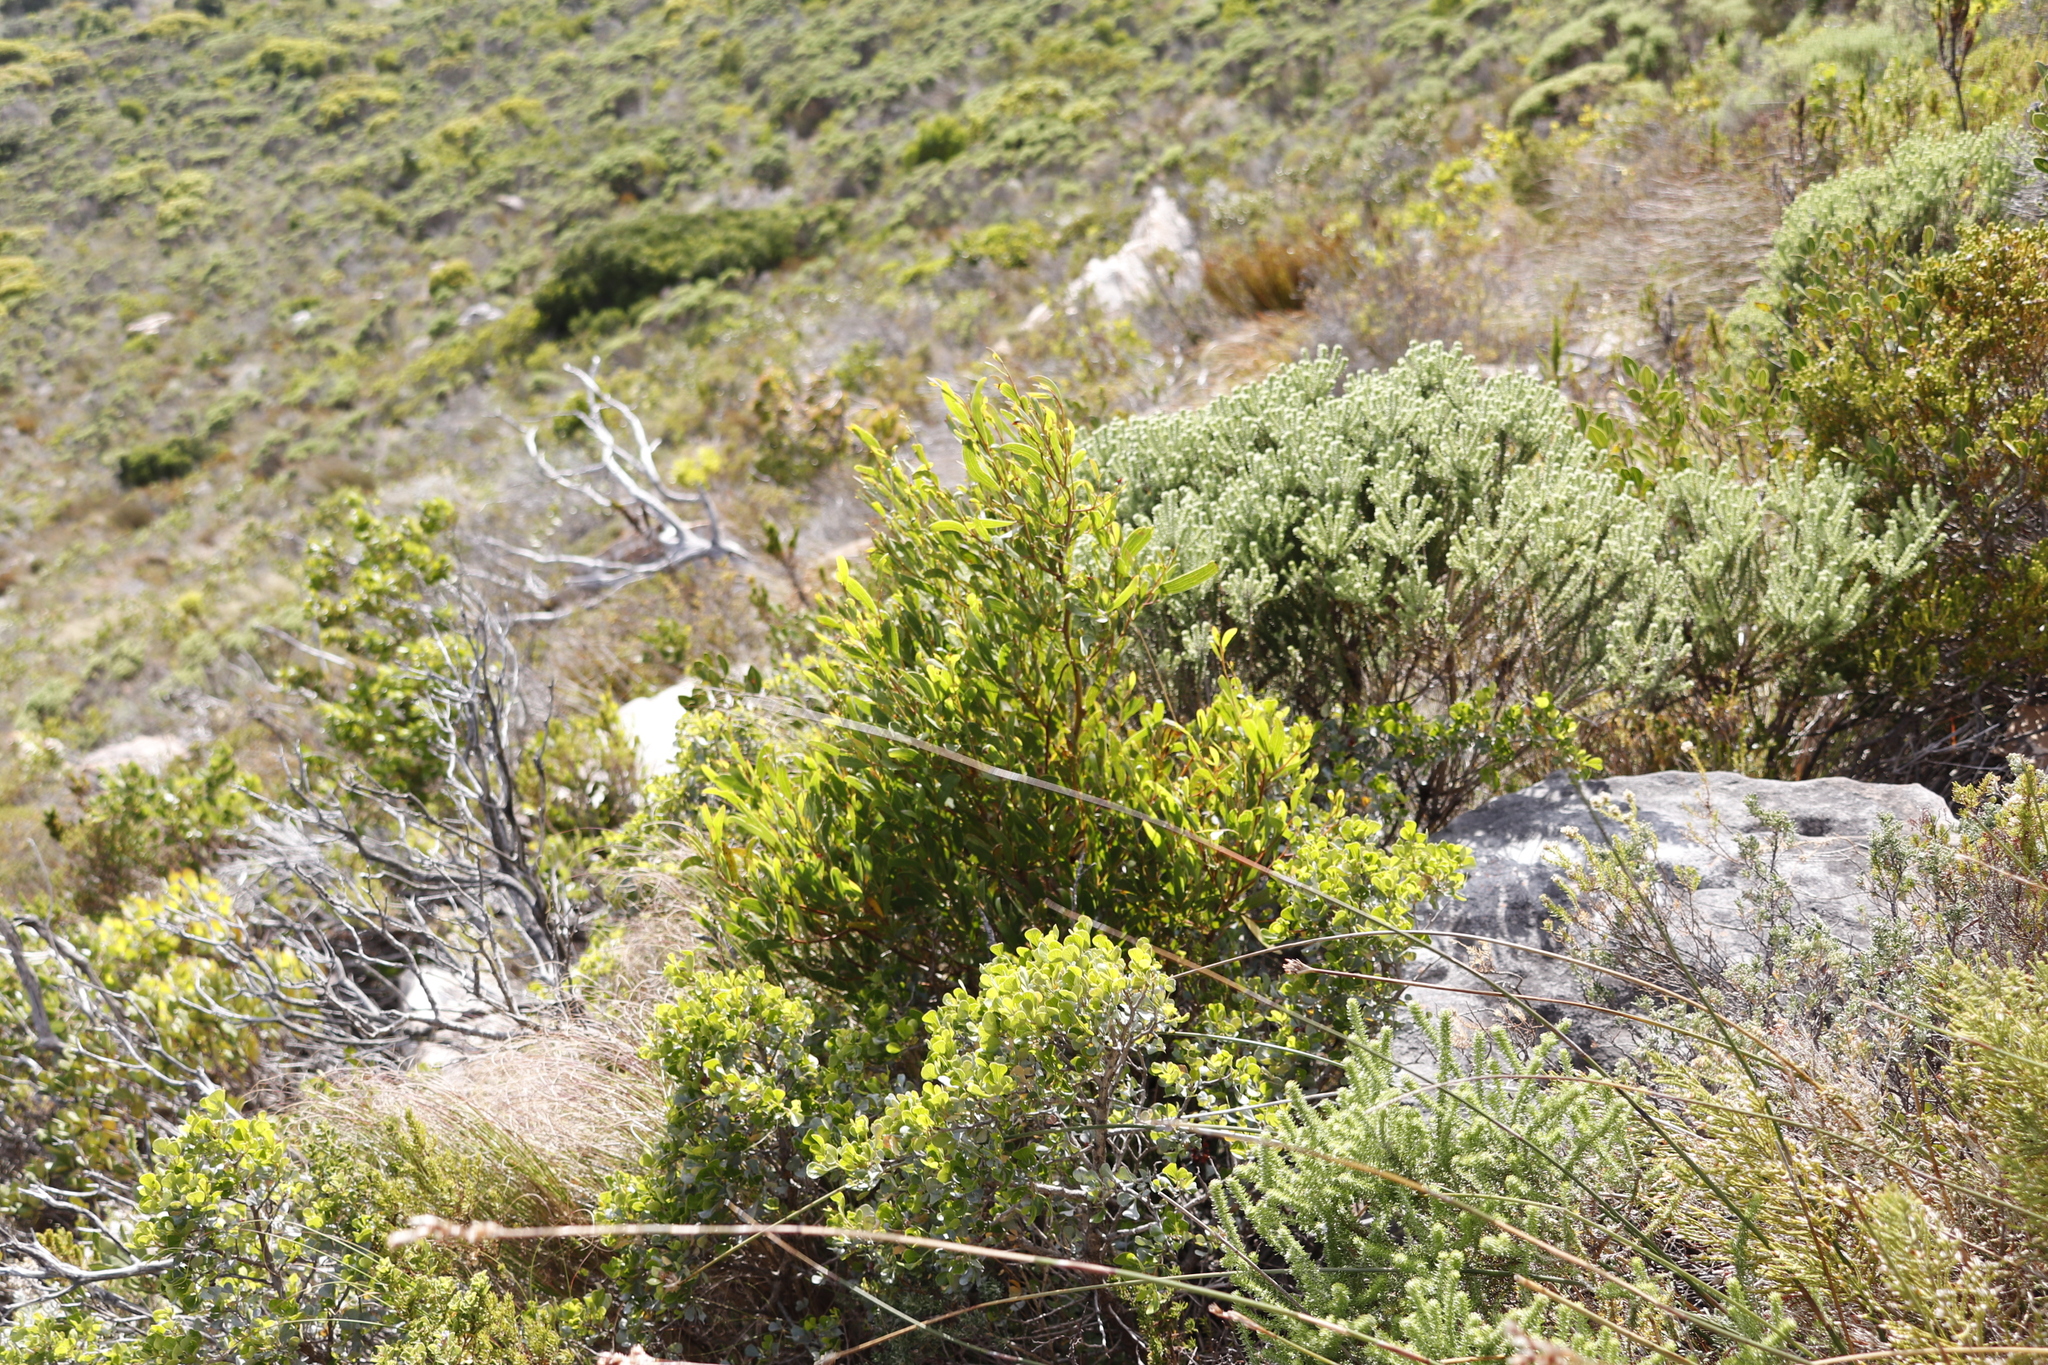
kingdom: Plantae
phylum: Tracheophyta
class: Magnoliopsida
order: Fabales
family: Fabaceae
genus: Acacia
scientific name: Acacia cyclops
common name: Coastal wattle
